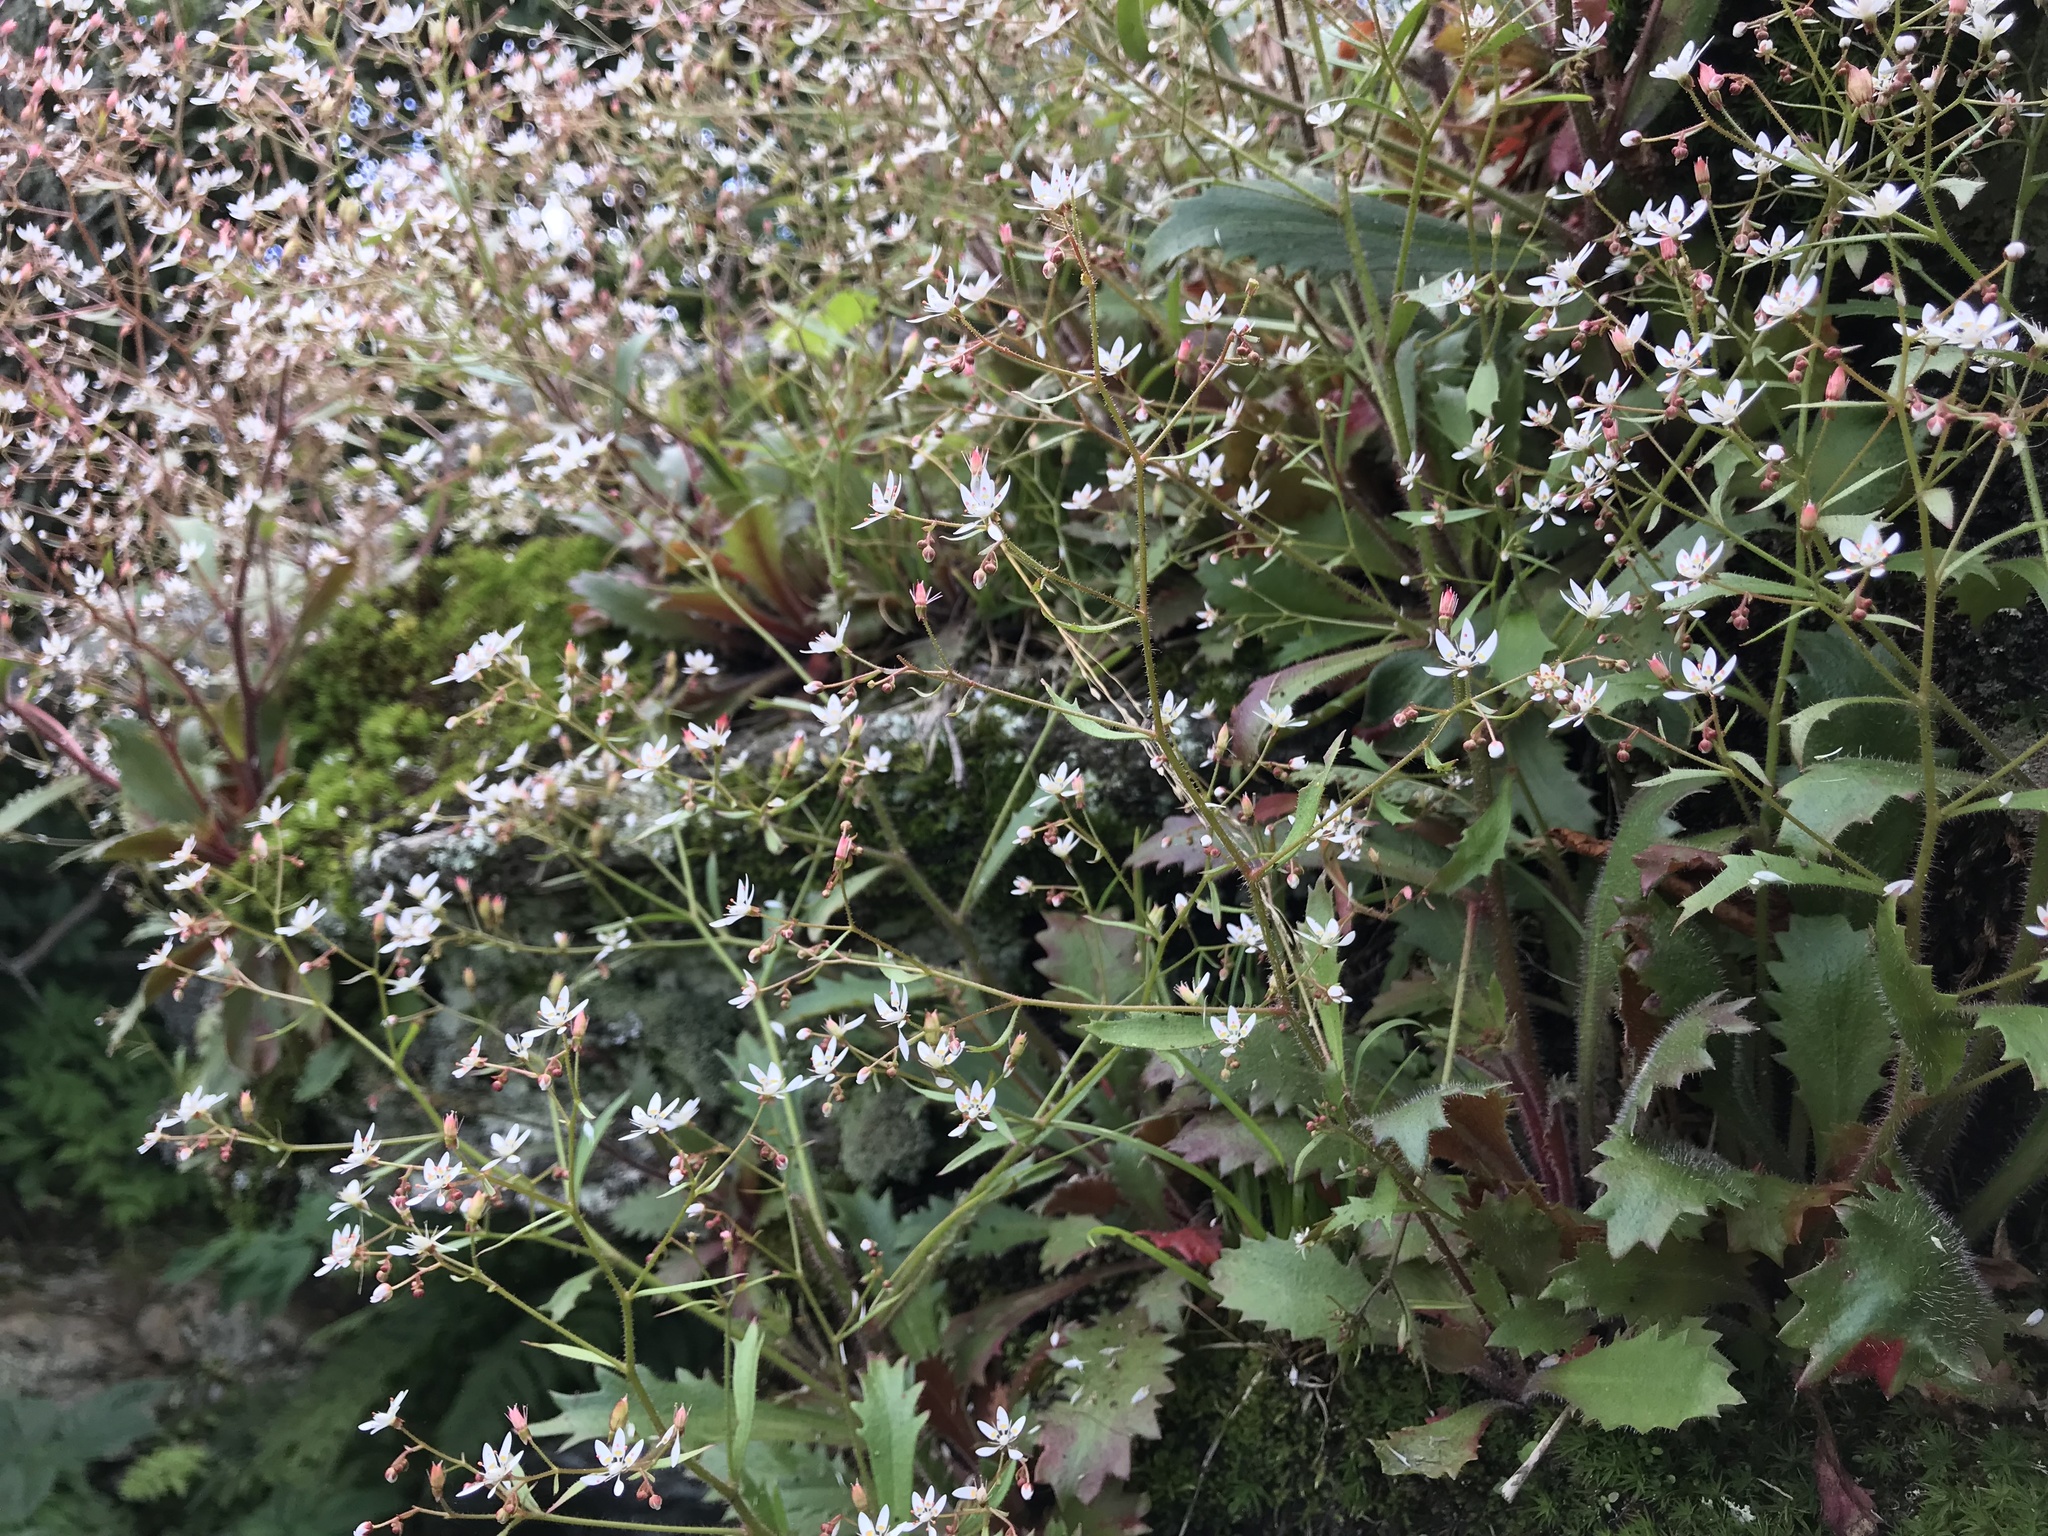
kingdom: Plantae
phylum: Tracheophyta
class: Magnoliopsida
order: Saxifragales
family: Saxifragaceae
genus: Micranthes
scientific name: Micranthes petiolaris
